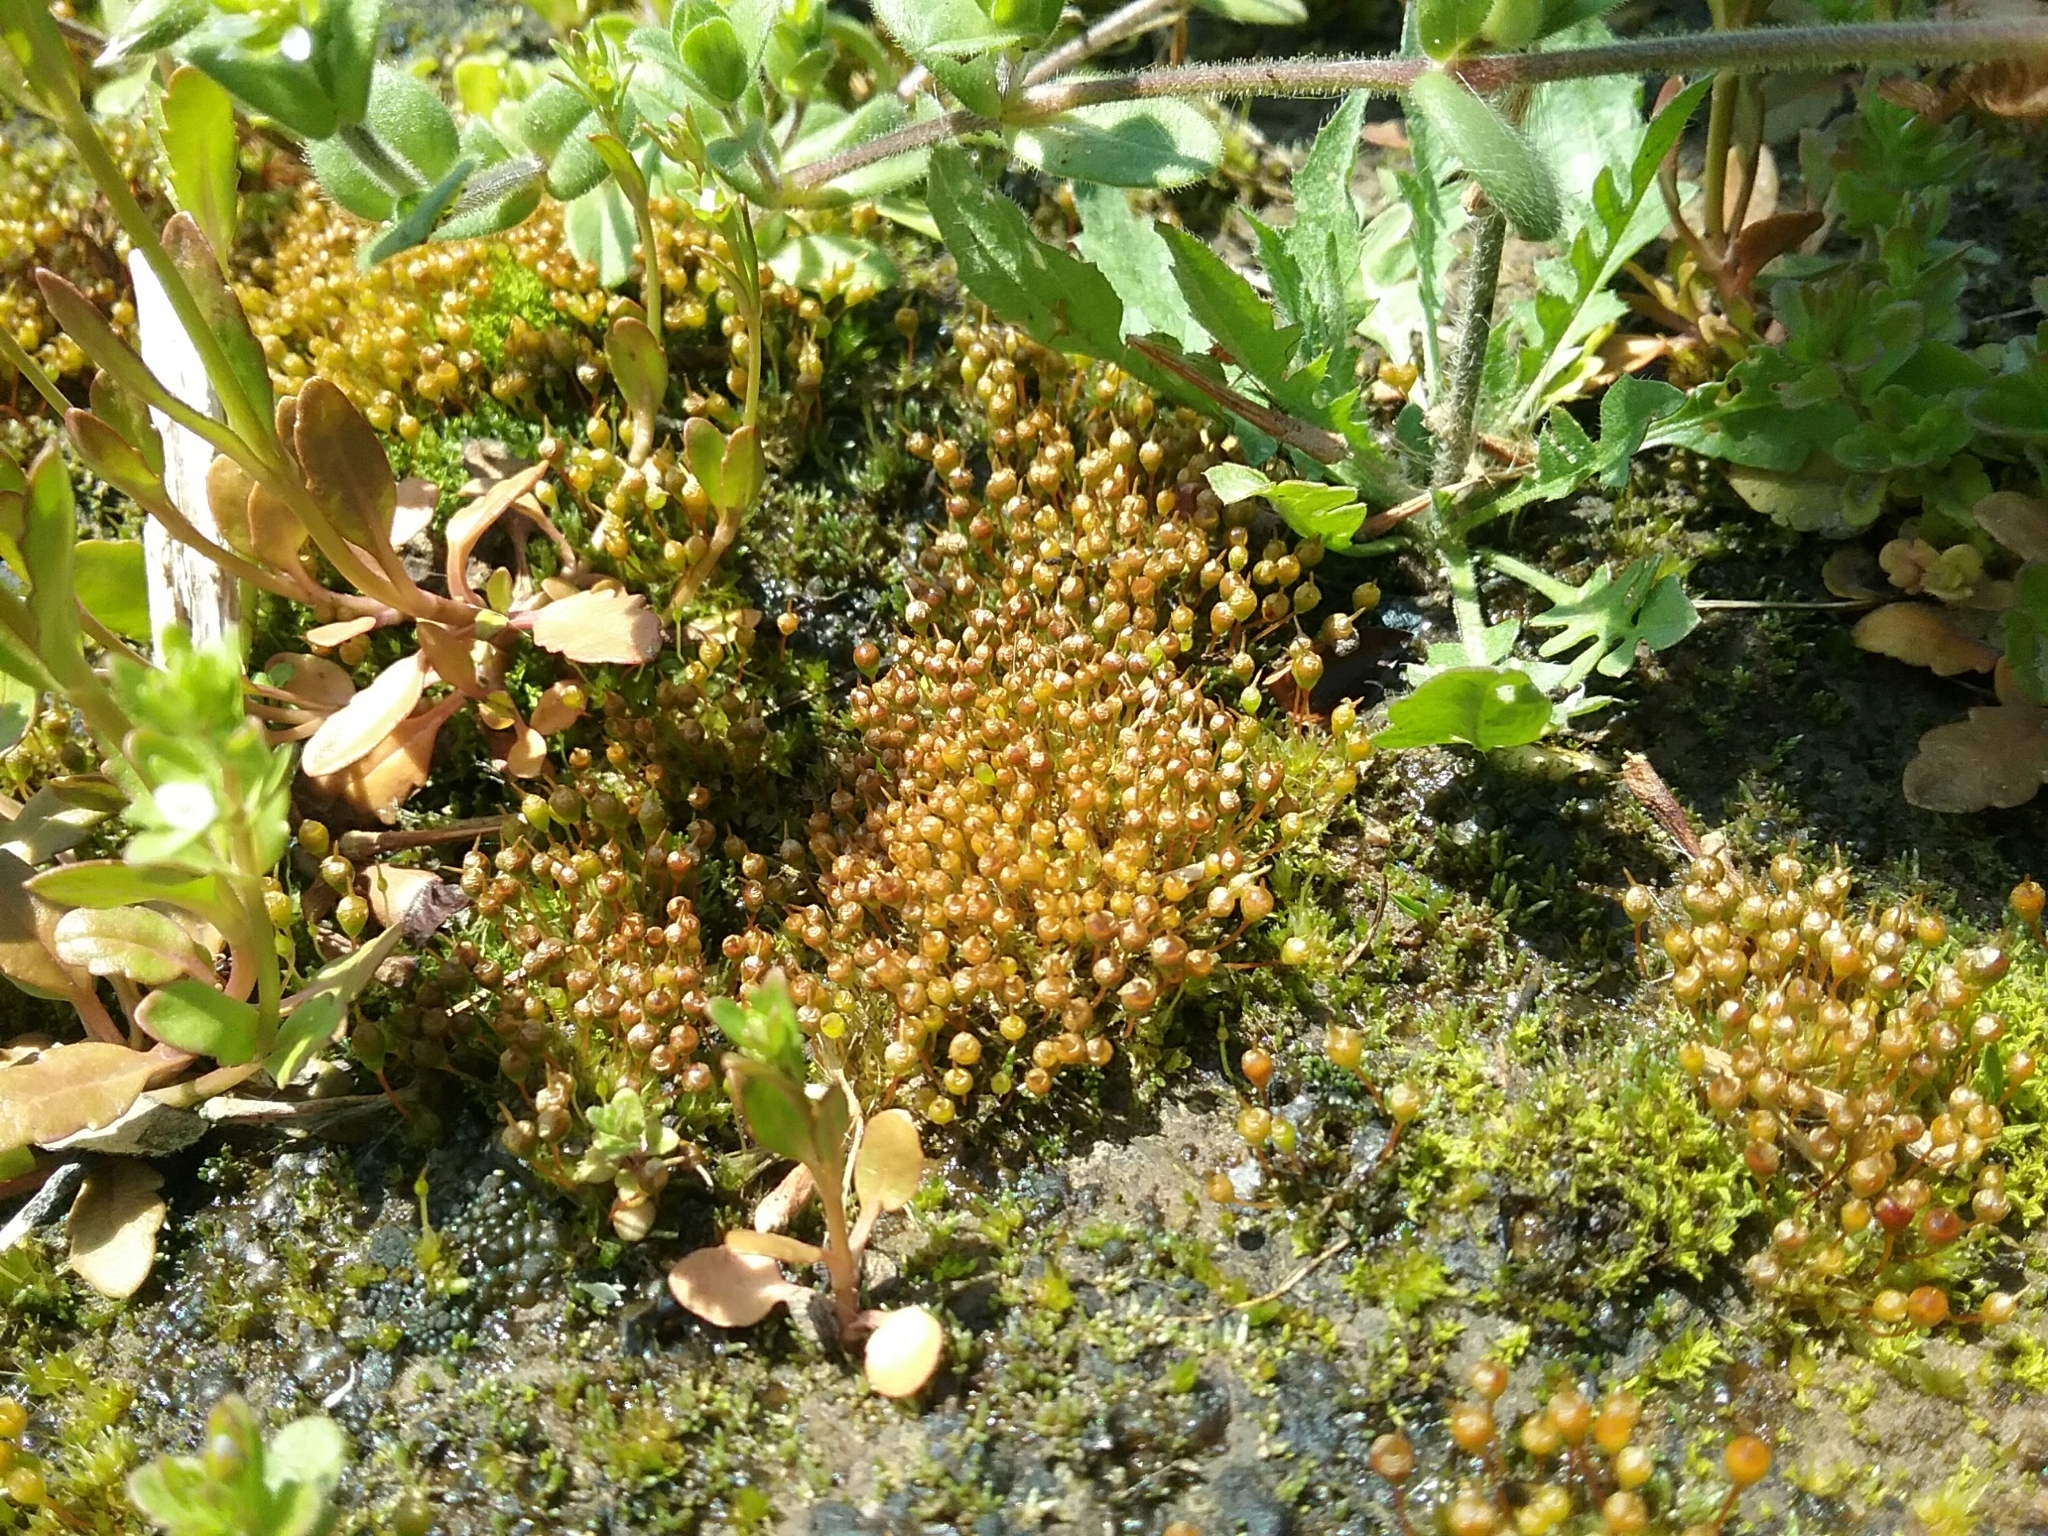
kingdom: Plantae
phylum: Bryophyta
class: Bryopsida
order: Funariales
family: Funariaceae
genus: Physcomitrium
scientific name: Physcomitrium pyriforme
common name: Common bladder-moss
